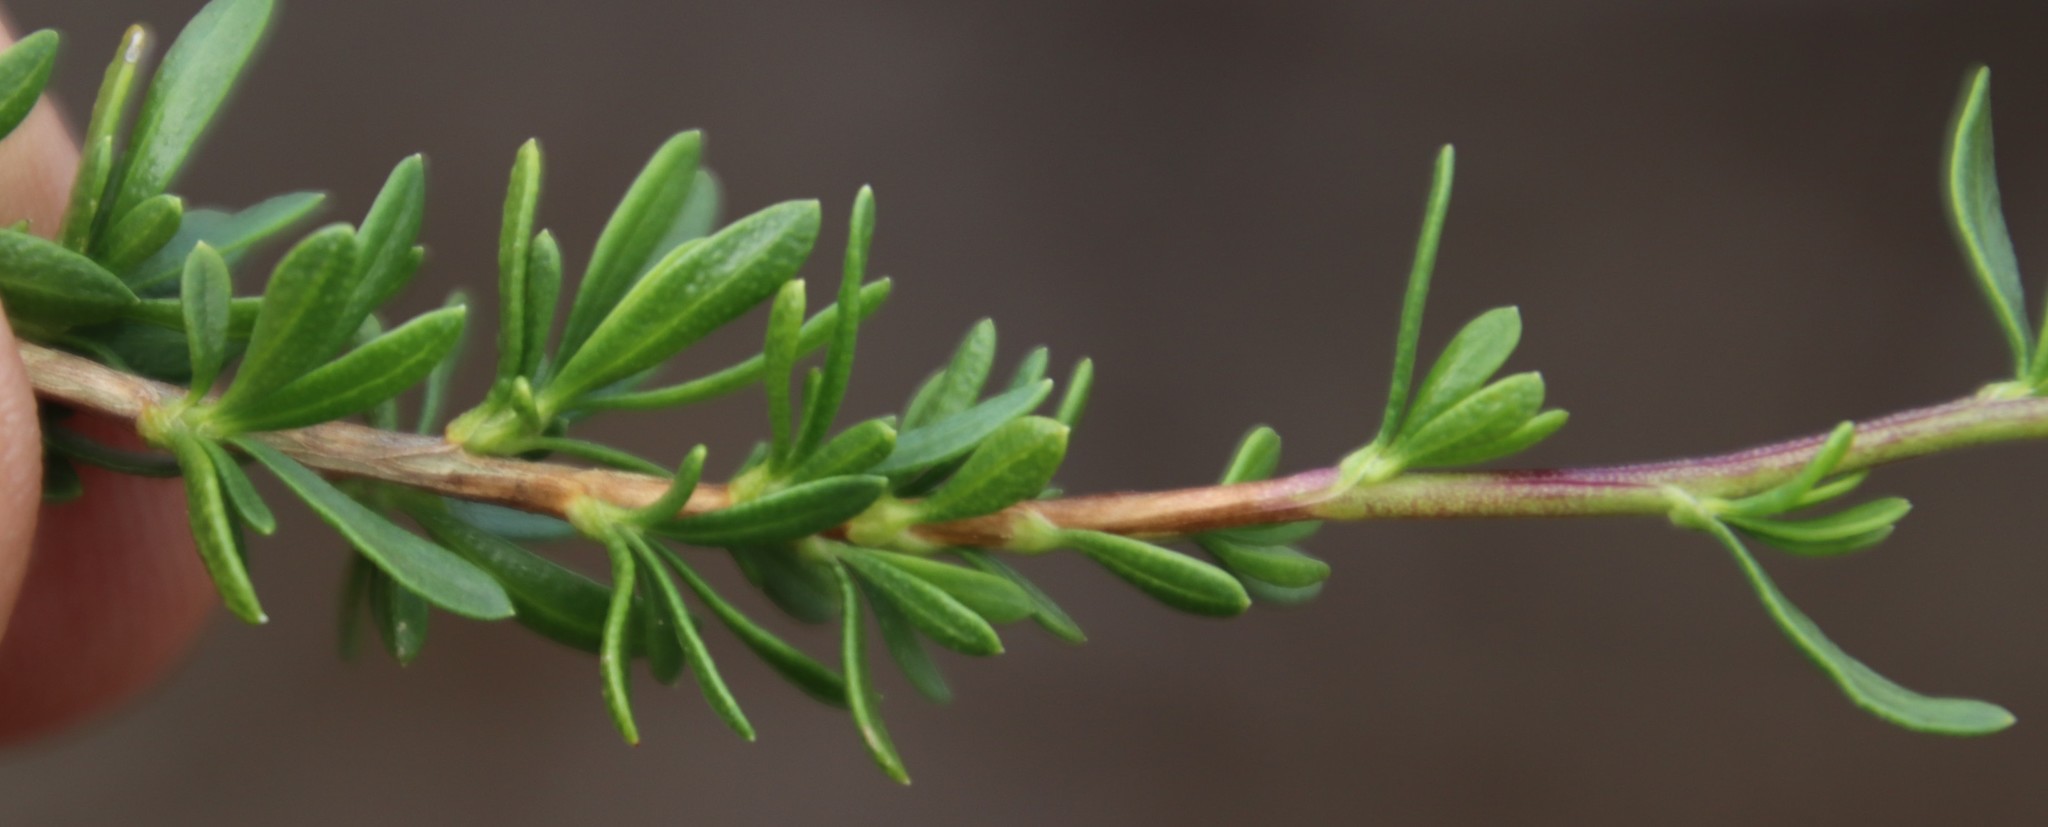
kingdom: Plantae
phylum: Tracheophyta
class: Magnoliopsida
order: Asterales
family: Asteraceae
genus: Felicia
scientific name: Felicia fruticosa
